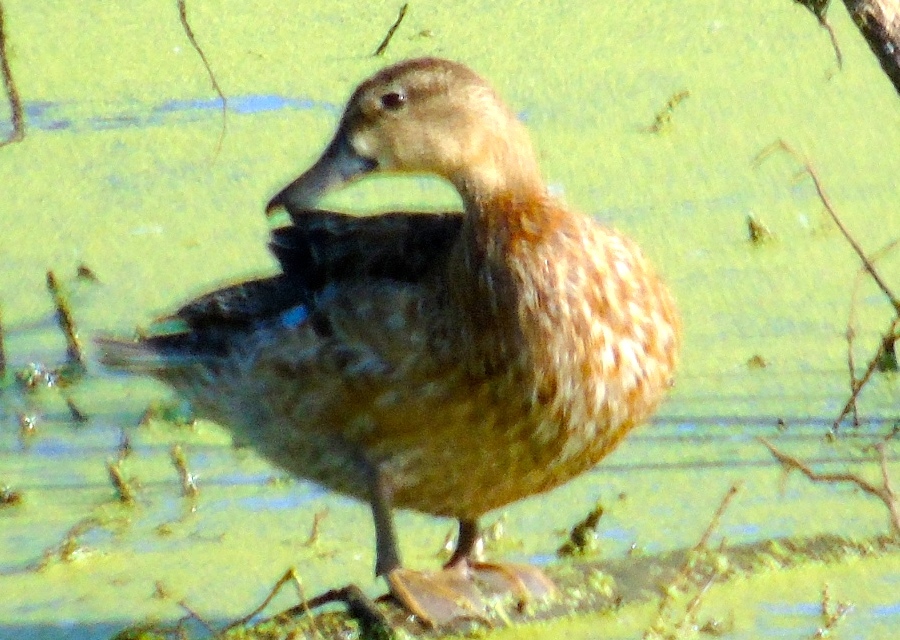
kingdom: Animalia
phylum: Chordata
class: Aves
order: Anseriformes
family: Anatidae
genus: Spatula
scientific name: Spatula discors
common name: Blue-winged teal
